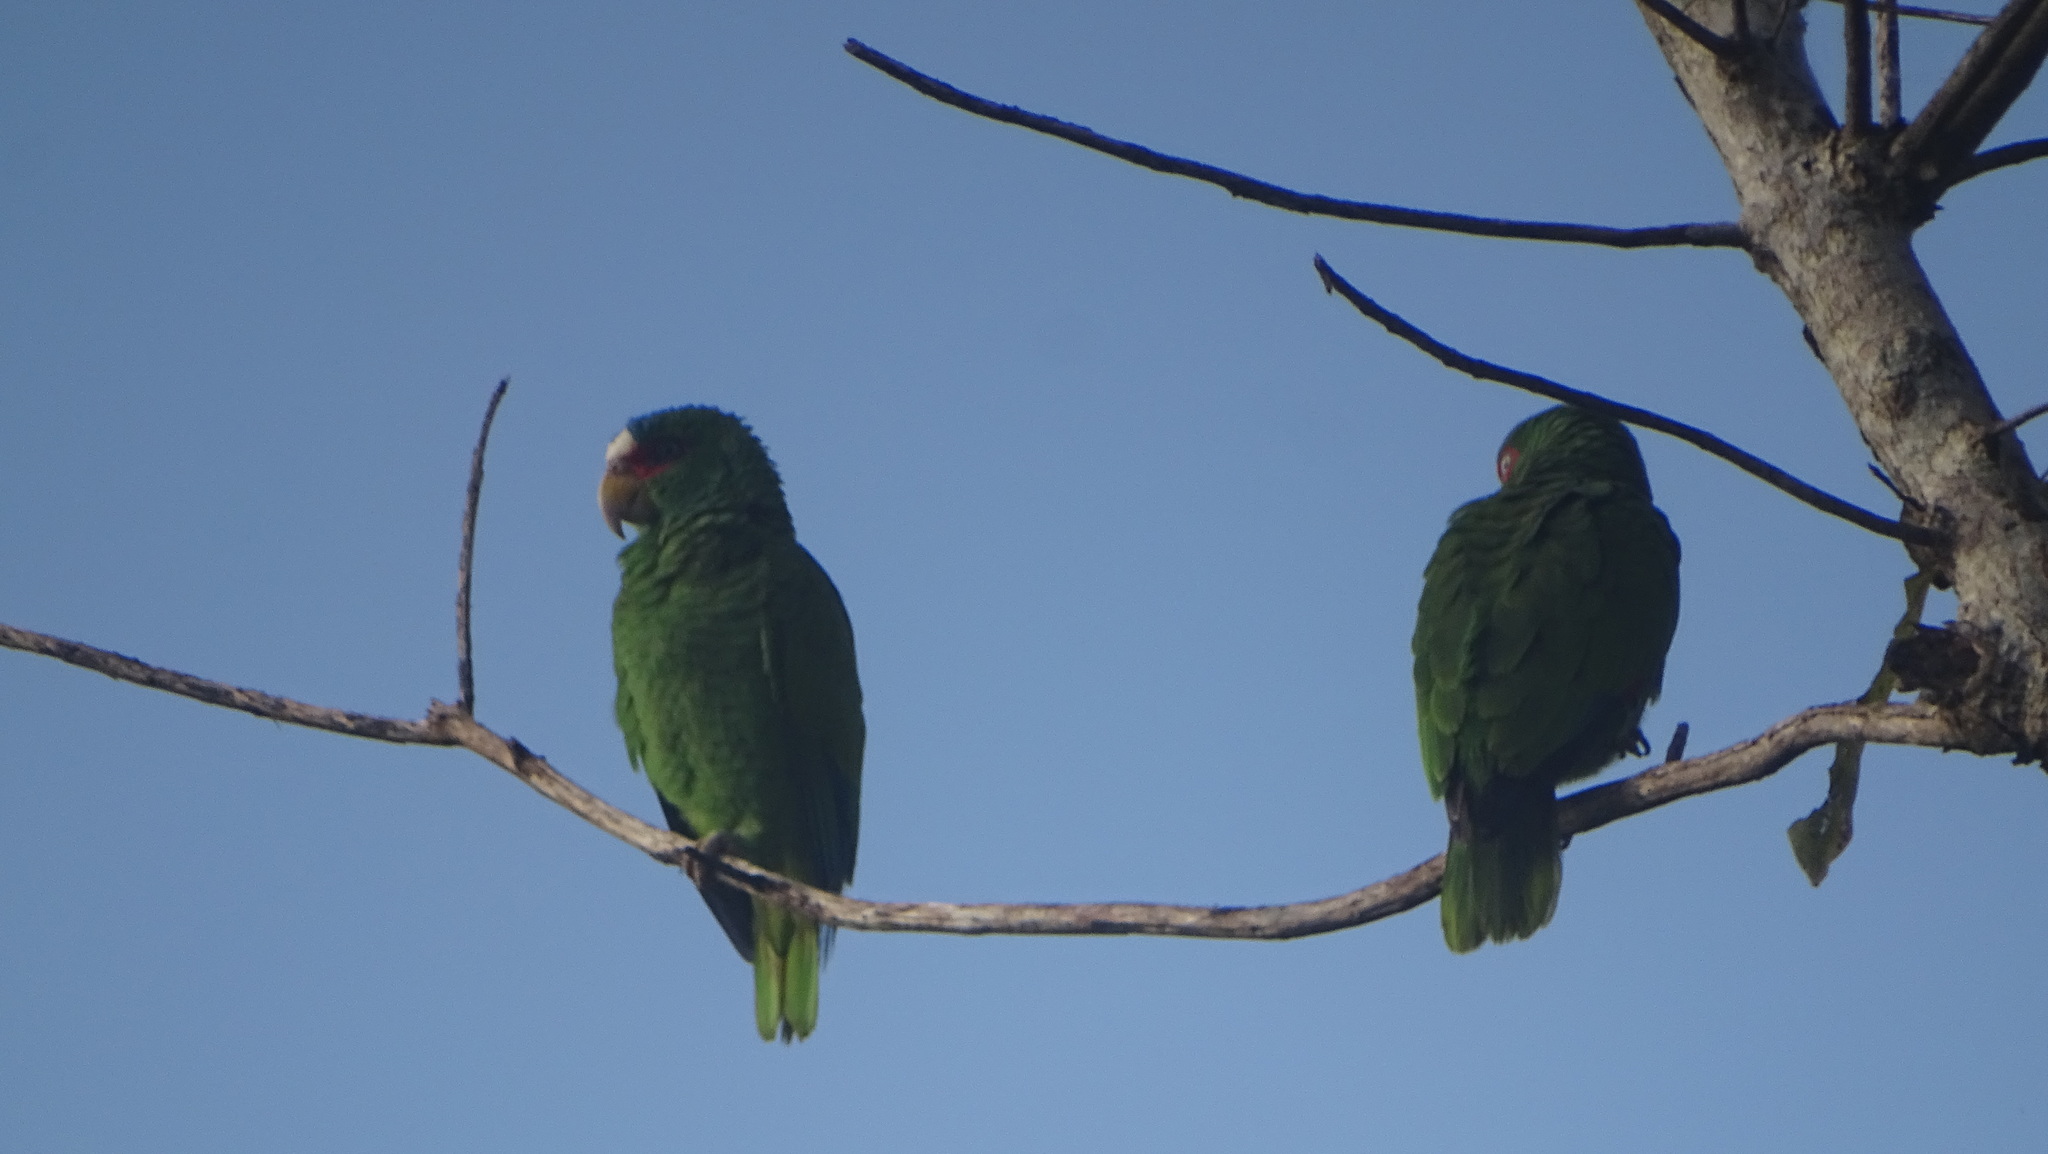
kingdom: Animalia
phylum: Chordata
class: Aves
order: Psittaciformes
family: Psittacidae
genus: Amazona
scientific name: Amazona albifrons
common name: White-fronted amazon
